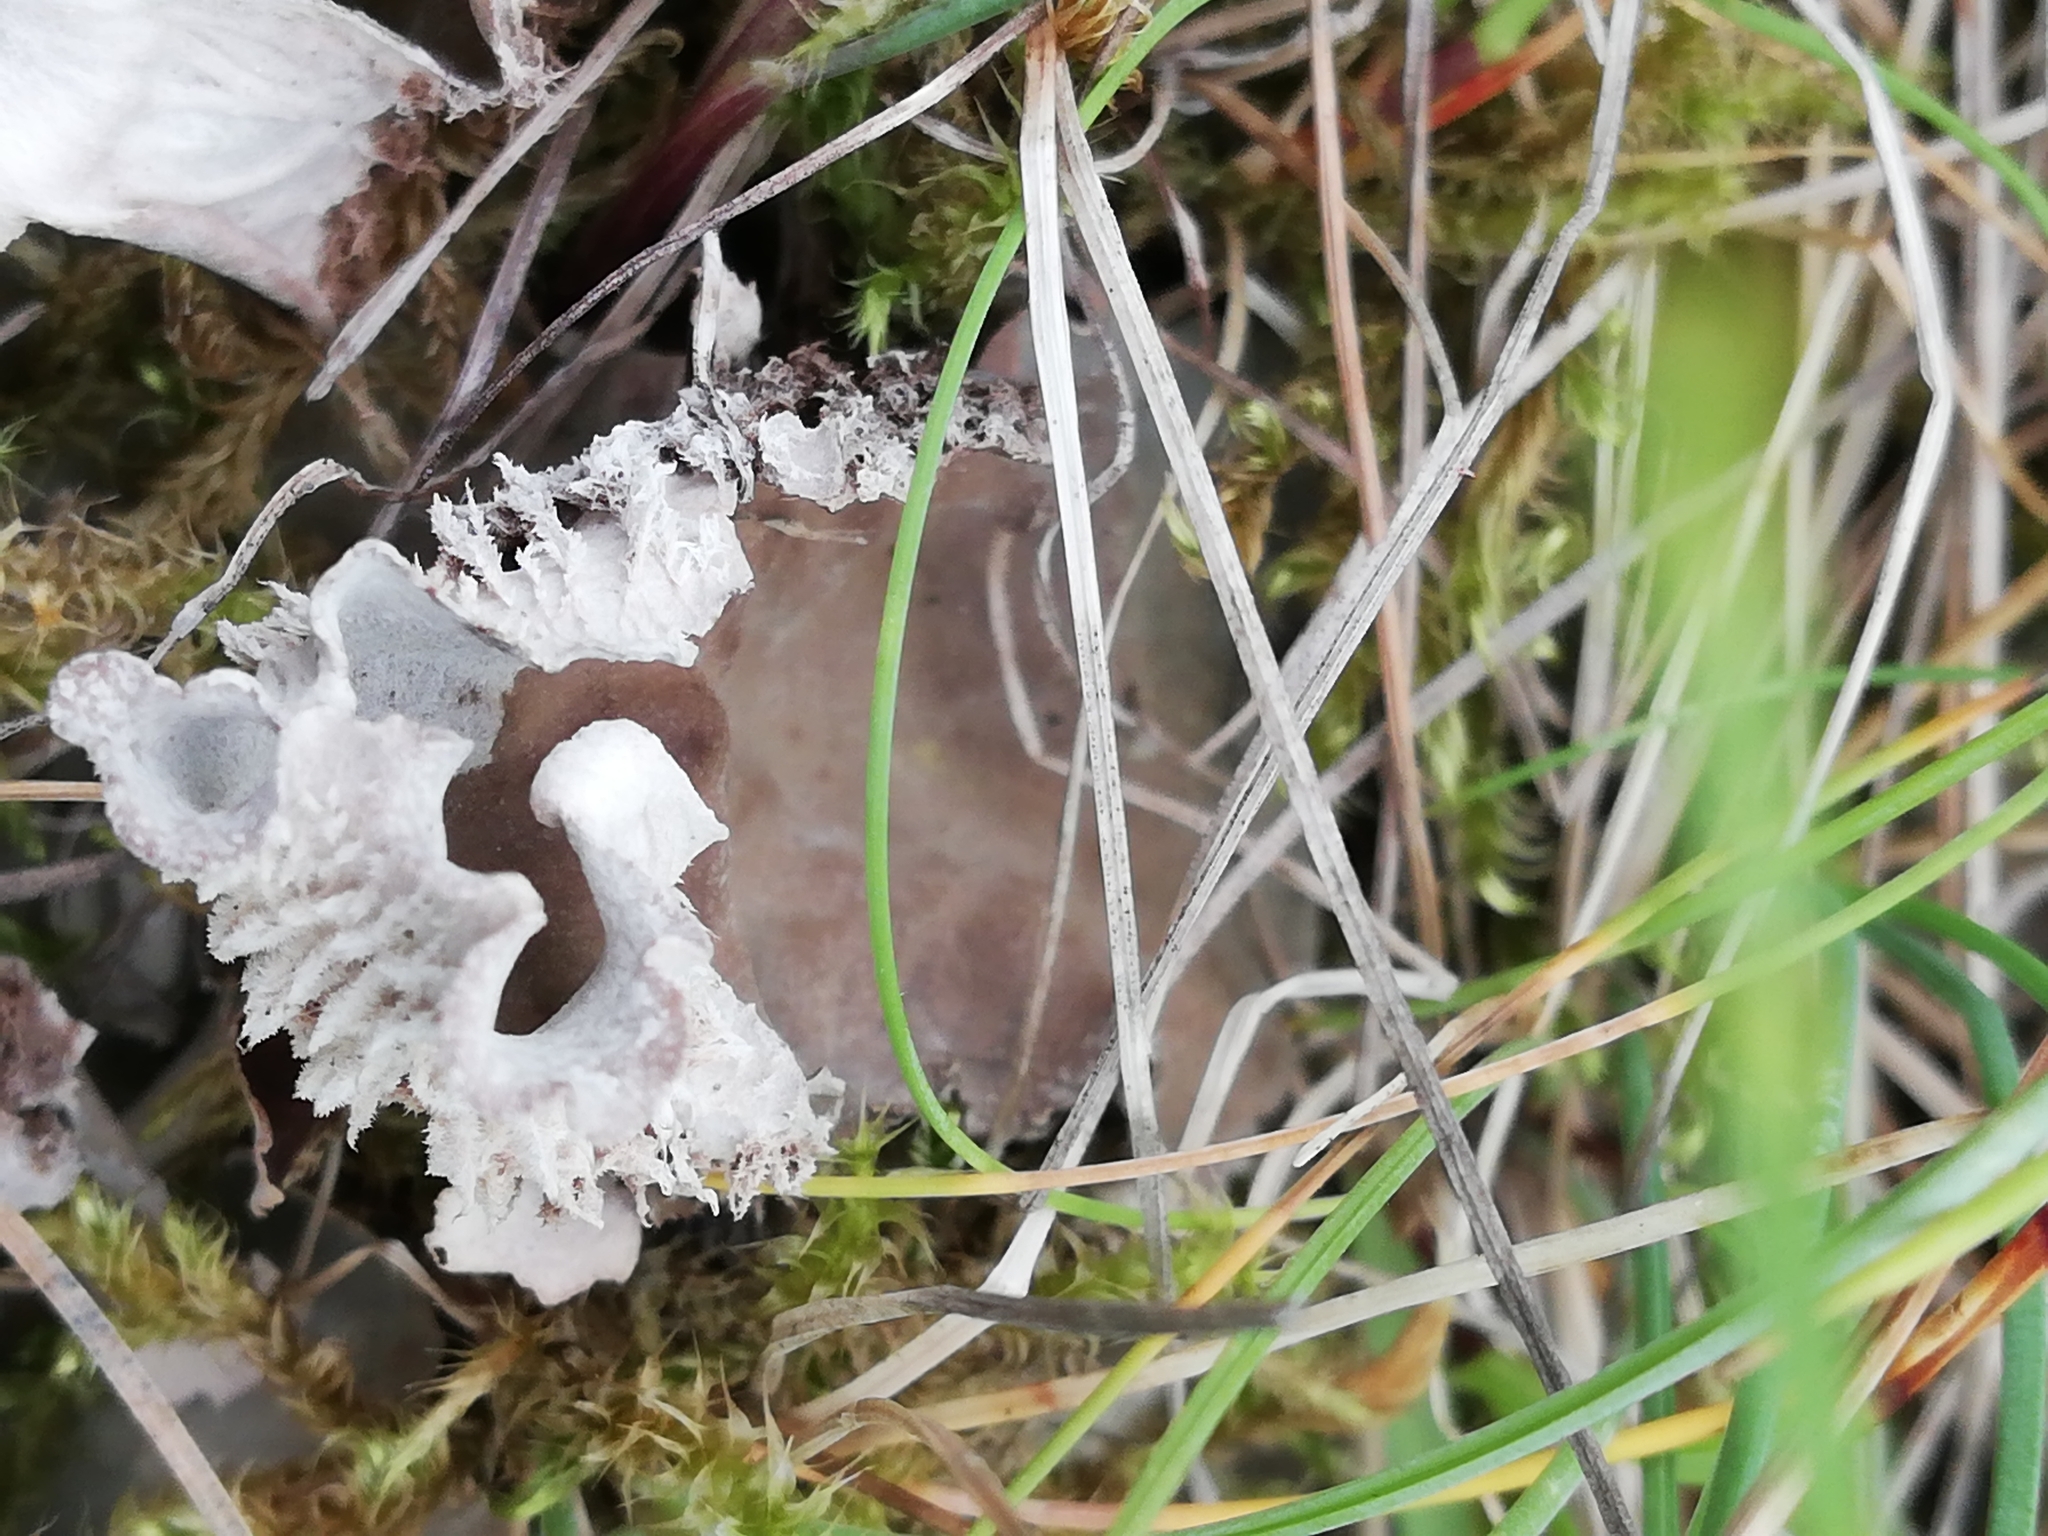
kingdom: Fungi
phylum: Ascomycota
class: Lecanoromycetes
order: Peltigerales
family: Peltigeraceae
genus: Peltigera
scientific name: Peltigera canina
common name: Dog pelt lichen
